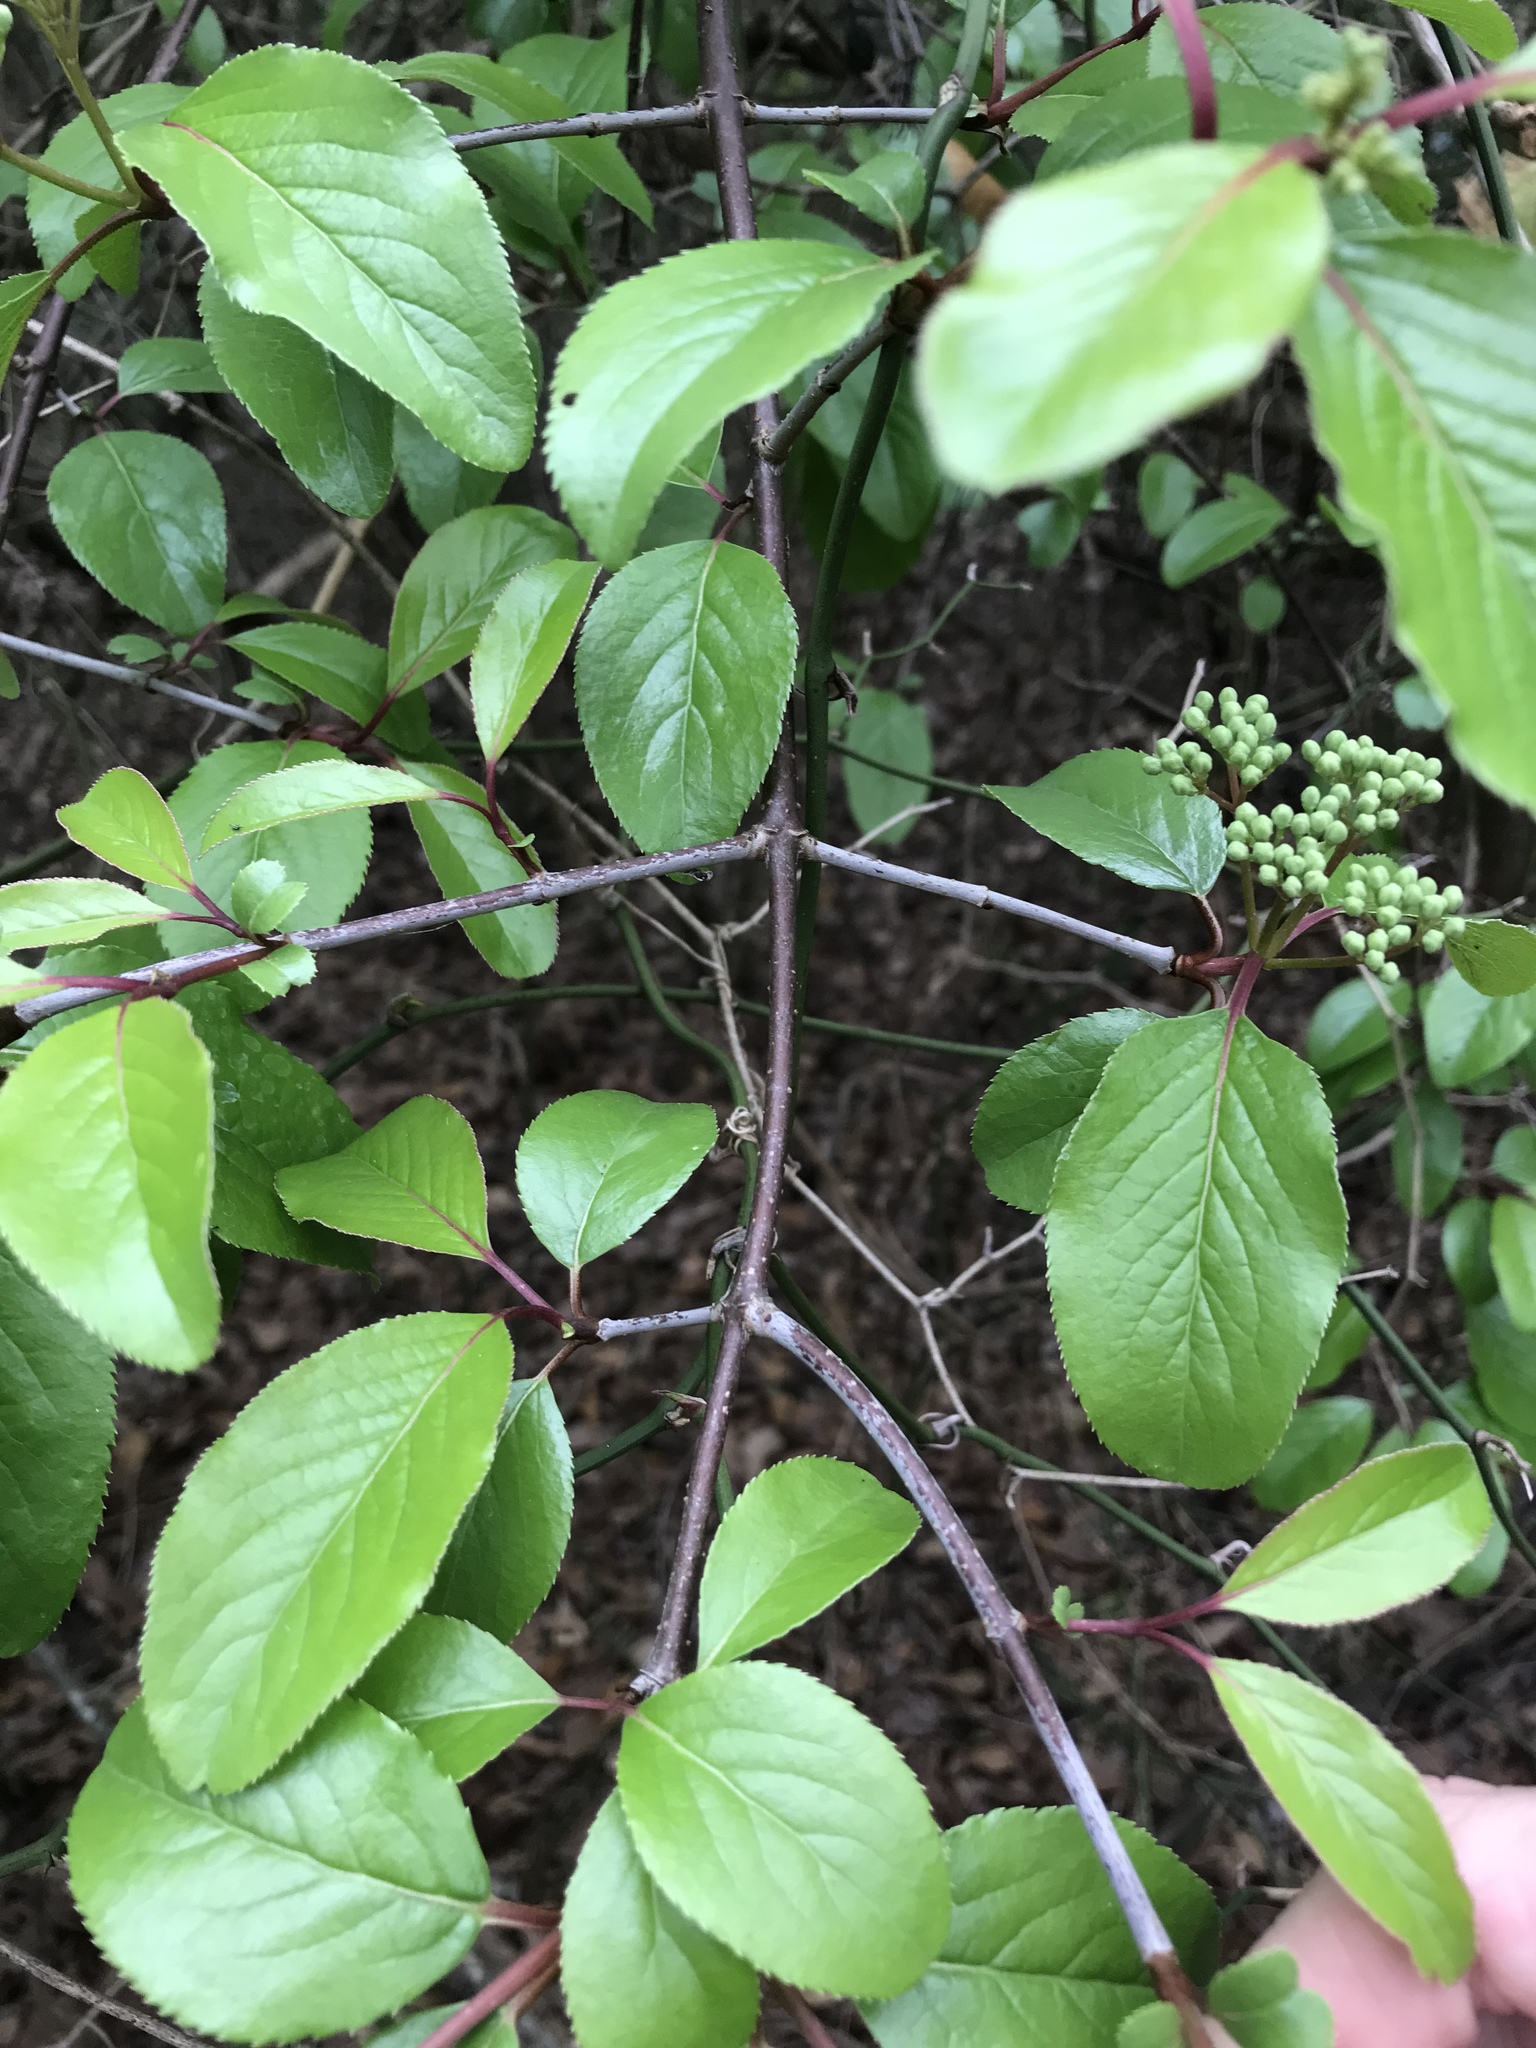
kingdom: Plantae
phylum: Tracheophyta
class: Magnoliopsida
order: Dipsacales
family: Viburnaceae
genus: Viburnum
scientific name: Viburnum rufidulum
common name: Blue haw
